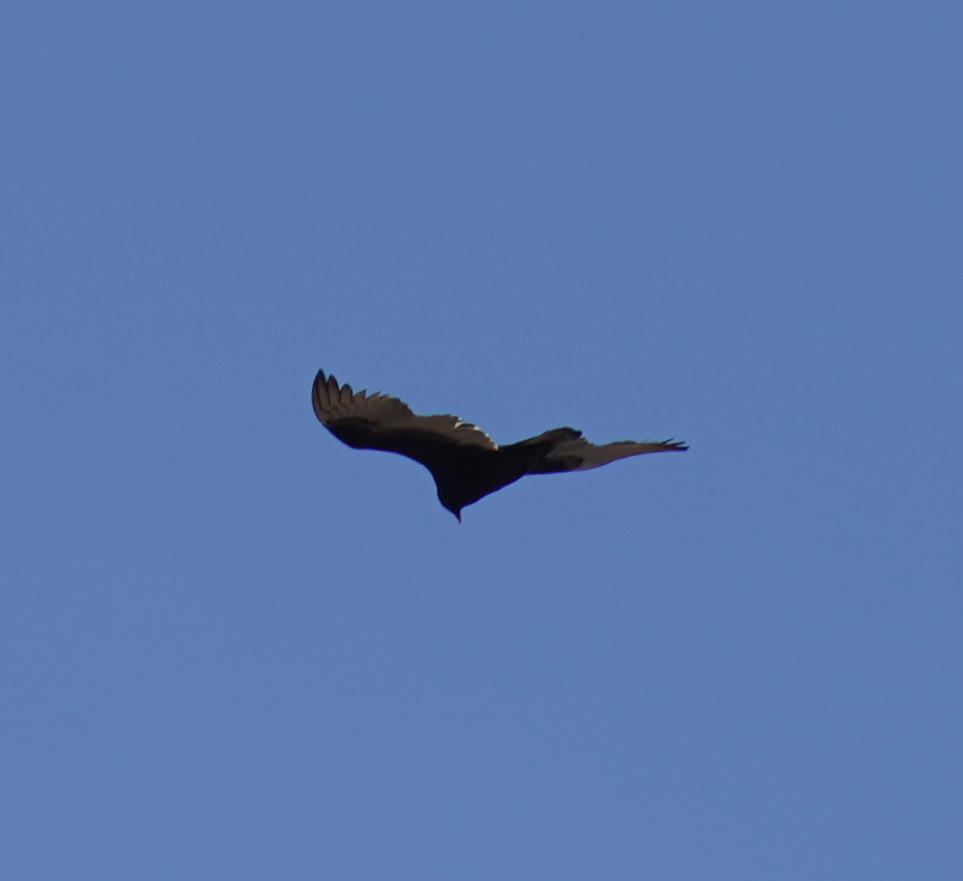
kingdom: Animalia
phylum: Chordata
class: Aves
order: Accipitriformes
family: Cathartidae
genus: Cathartes
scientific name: Cathartes aura
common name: Turkey vulture
